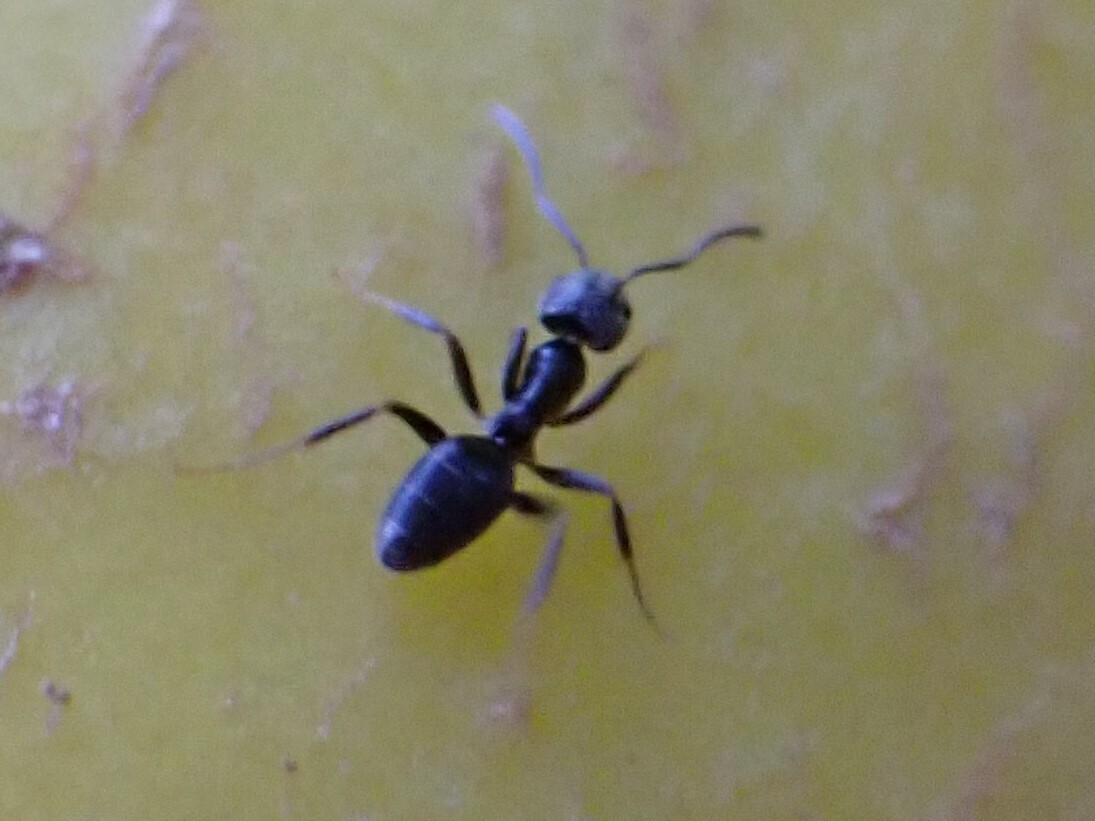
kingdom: Animalia
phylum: Arthropoda
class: Insecta
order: Hymenoptera
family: Formicidae
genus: Tapinoma
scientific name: Tapinoma sessile
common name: Odorous house ant
